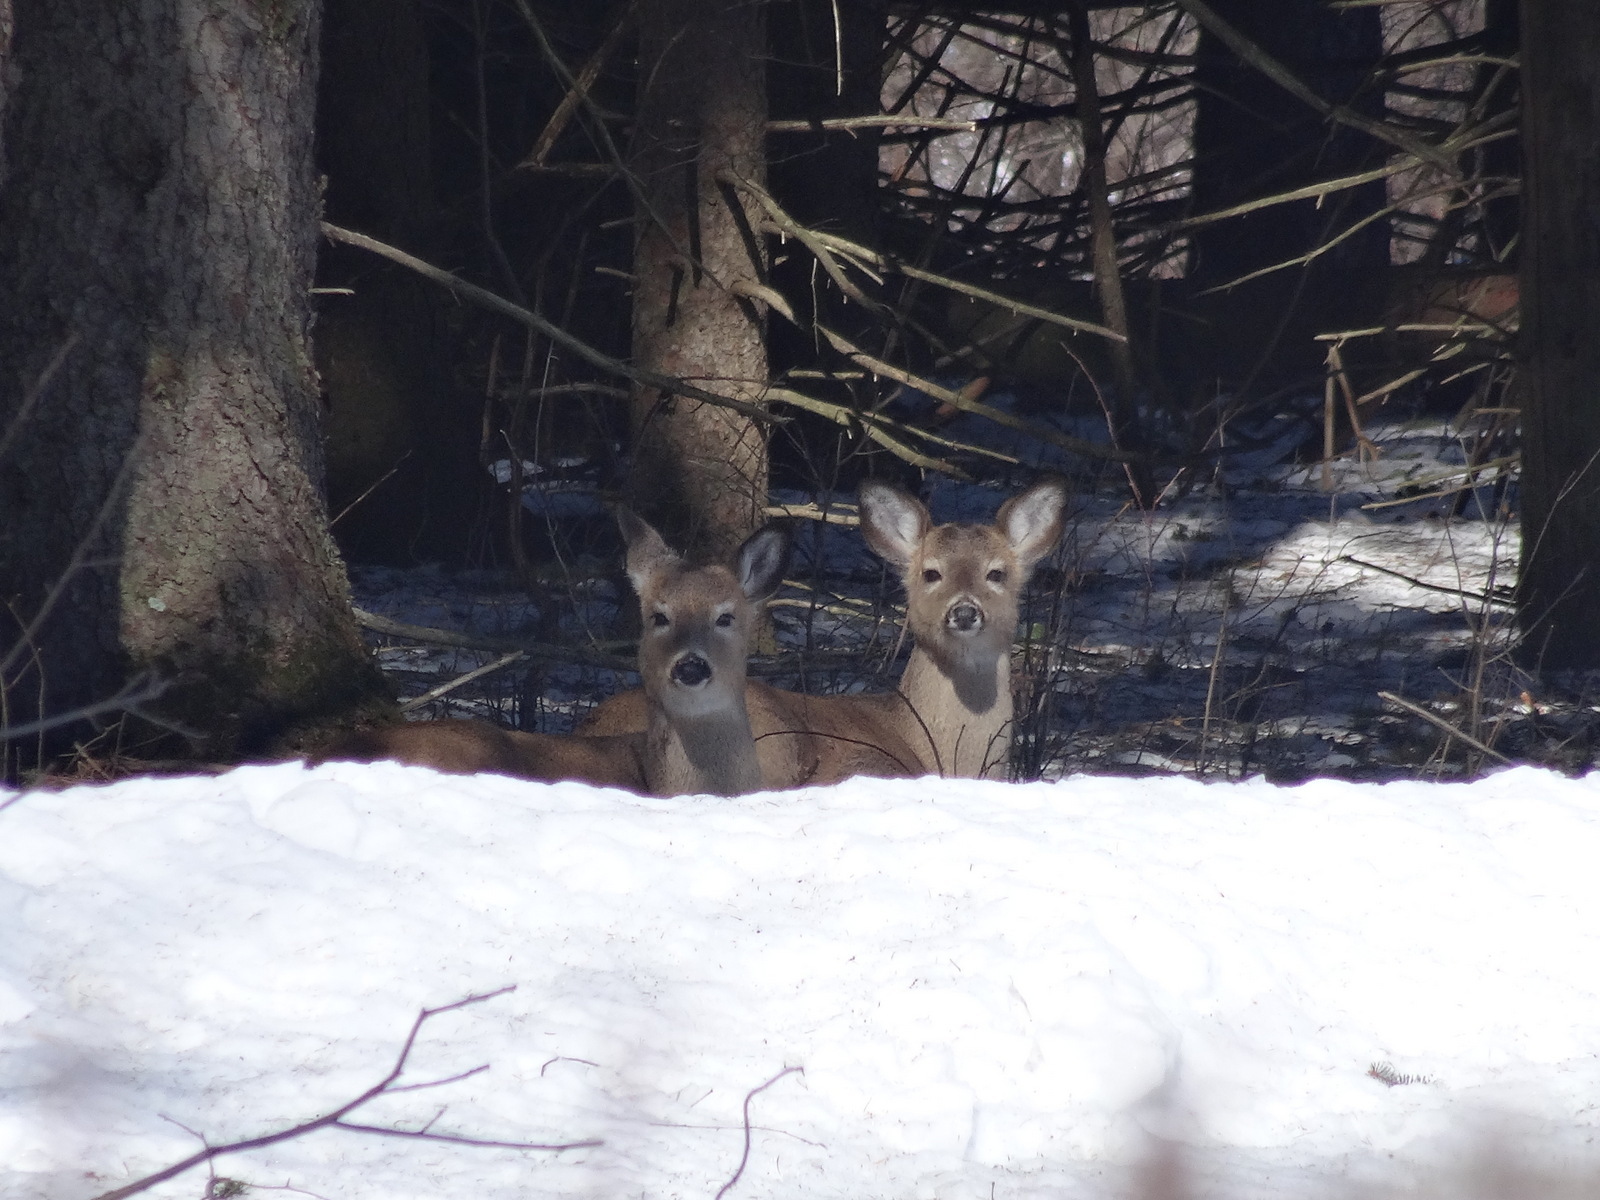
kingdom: Animalia
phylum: Chordata
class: Mammalia
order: Artiodactyla
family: Cervidae
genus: Odocoileus
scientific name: Odocoileus virginianus
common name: White-tailed deer
